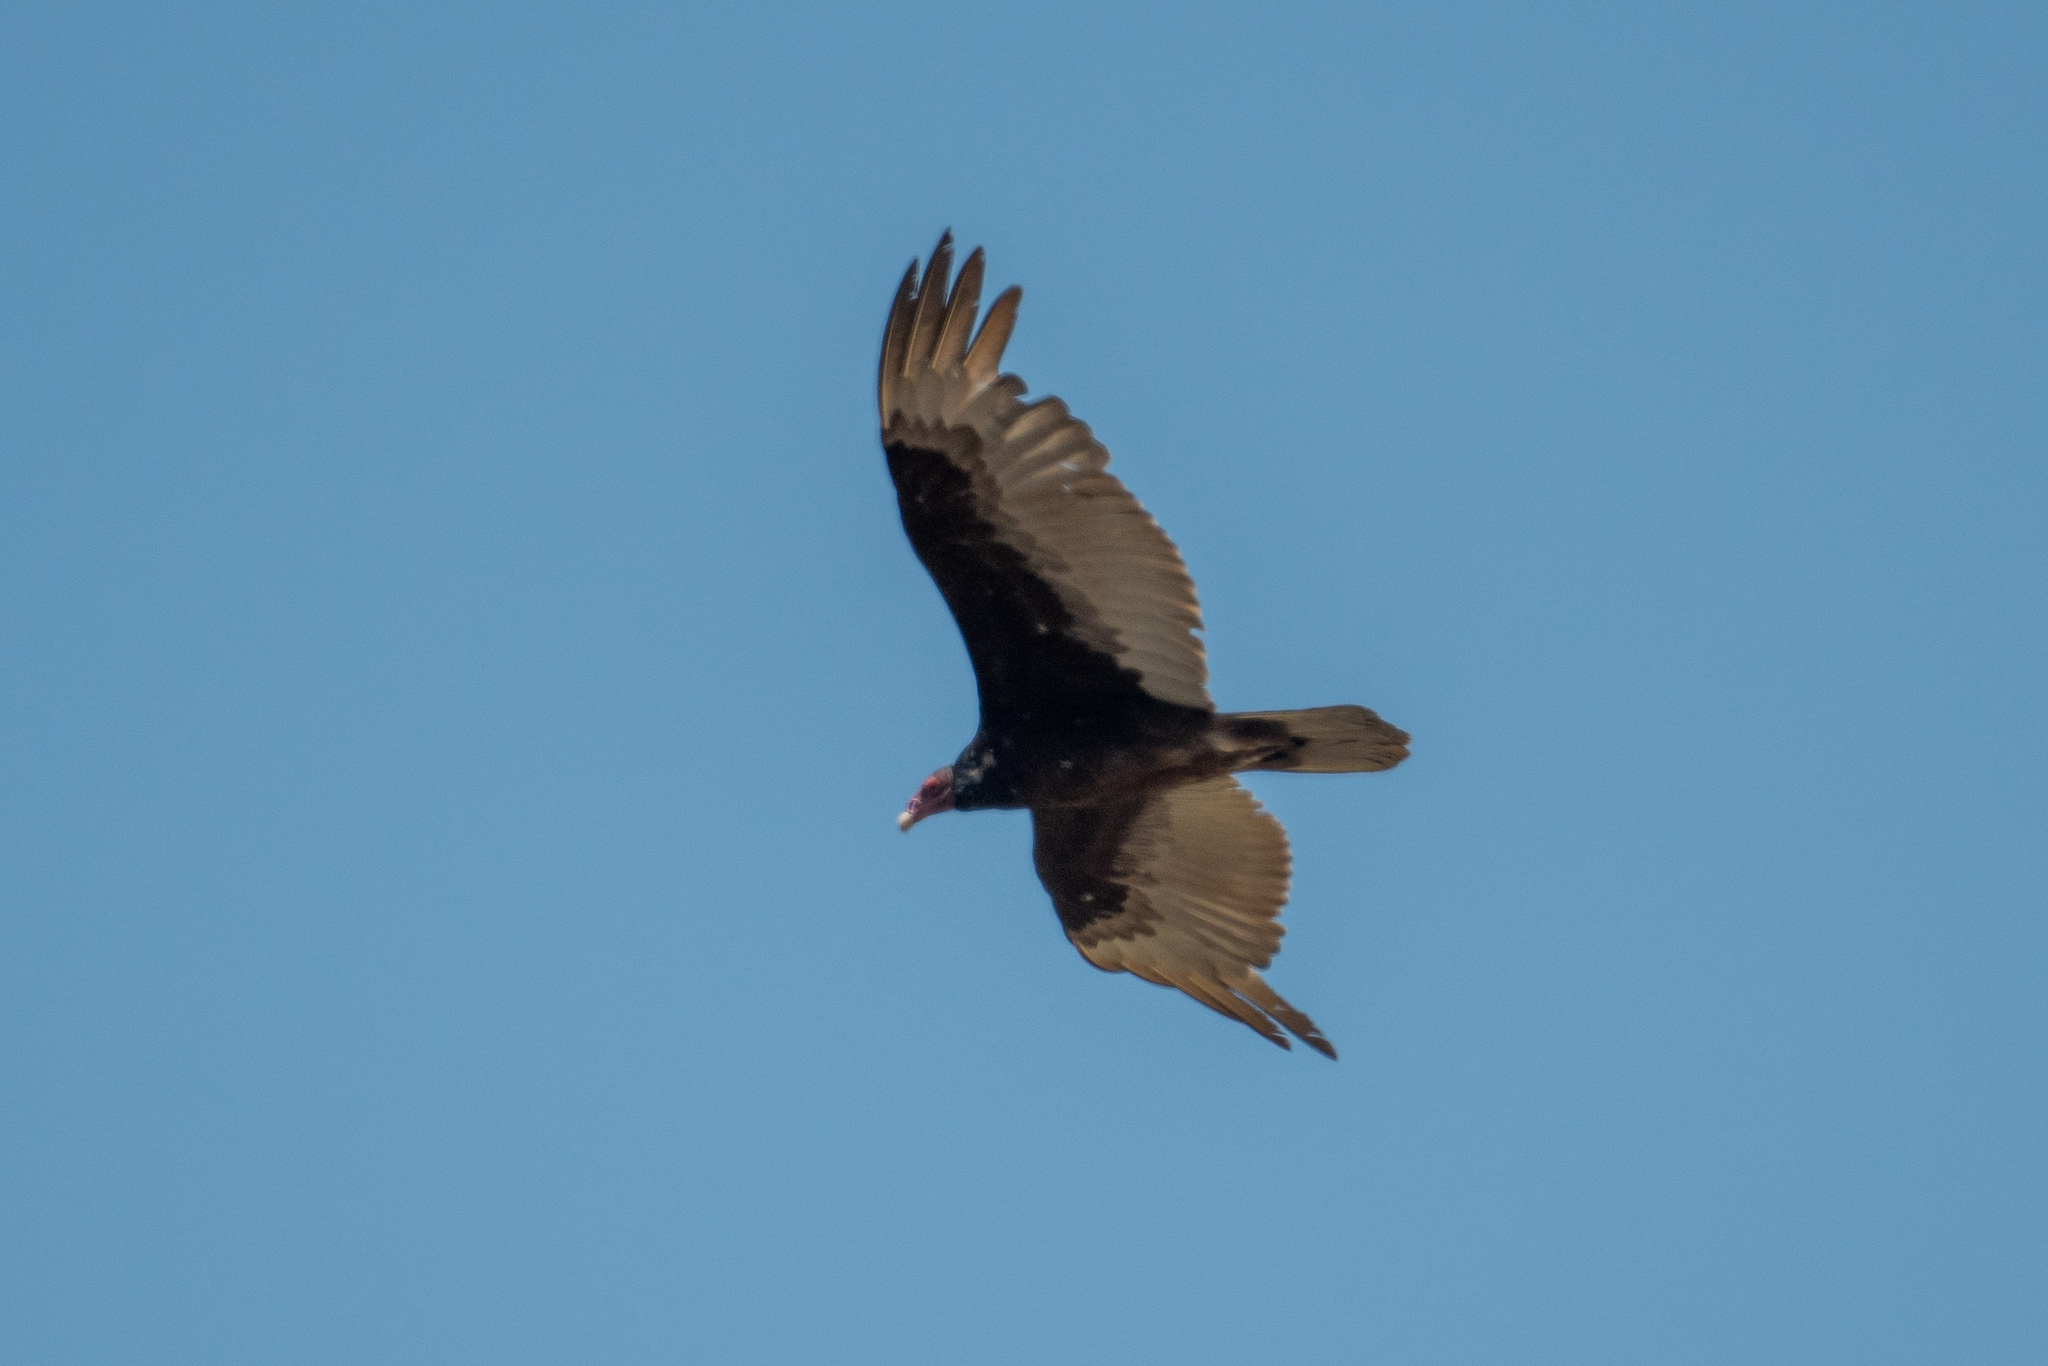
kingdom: Animalia
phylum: Chordata
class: Aves
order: Accipitriformes
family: Cathartidae
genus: Cathartes
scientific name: Cathartes aura
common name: Turkey vulture
